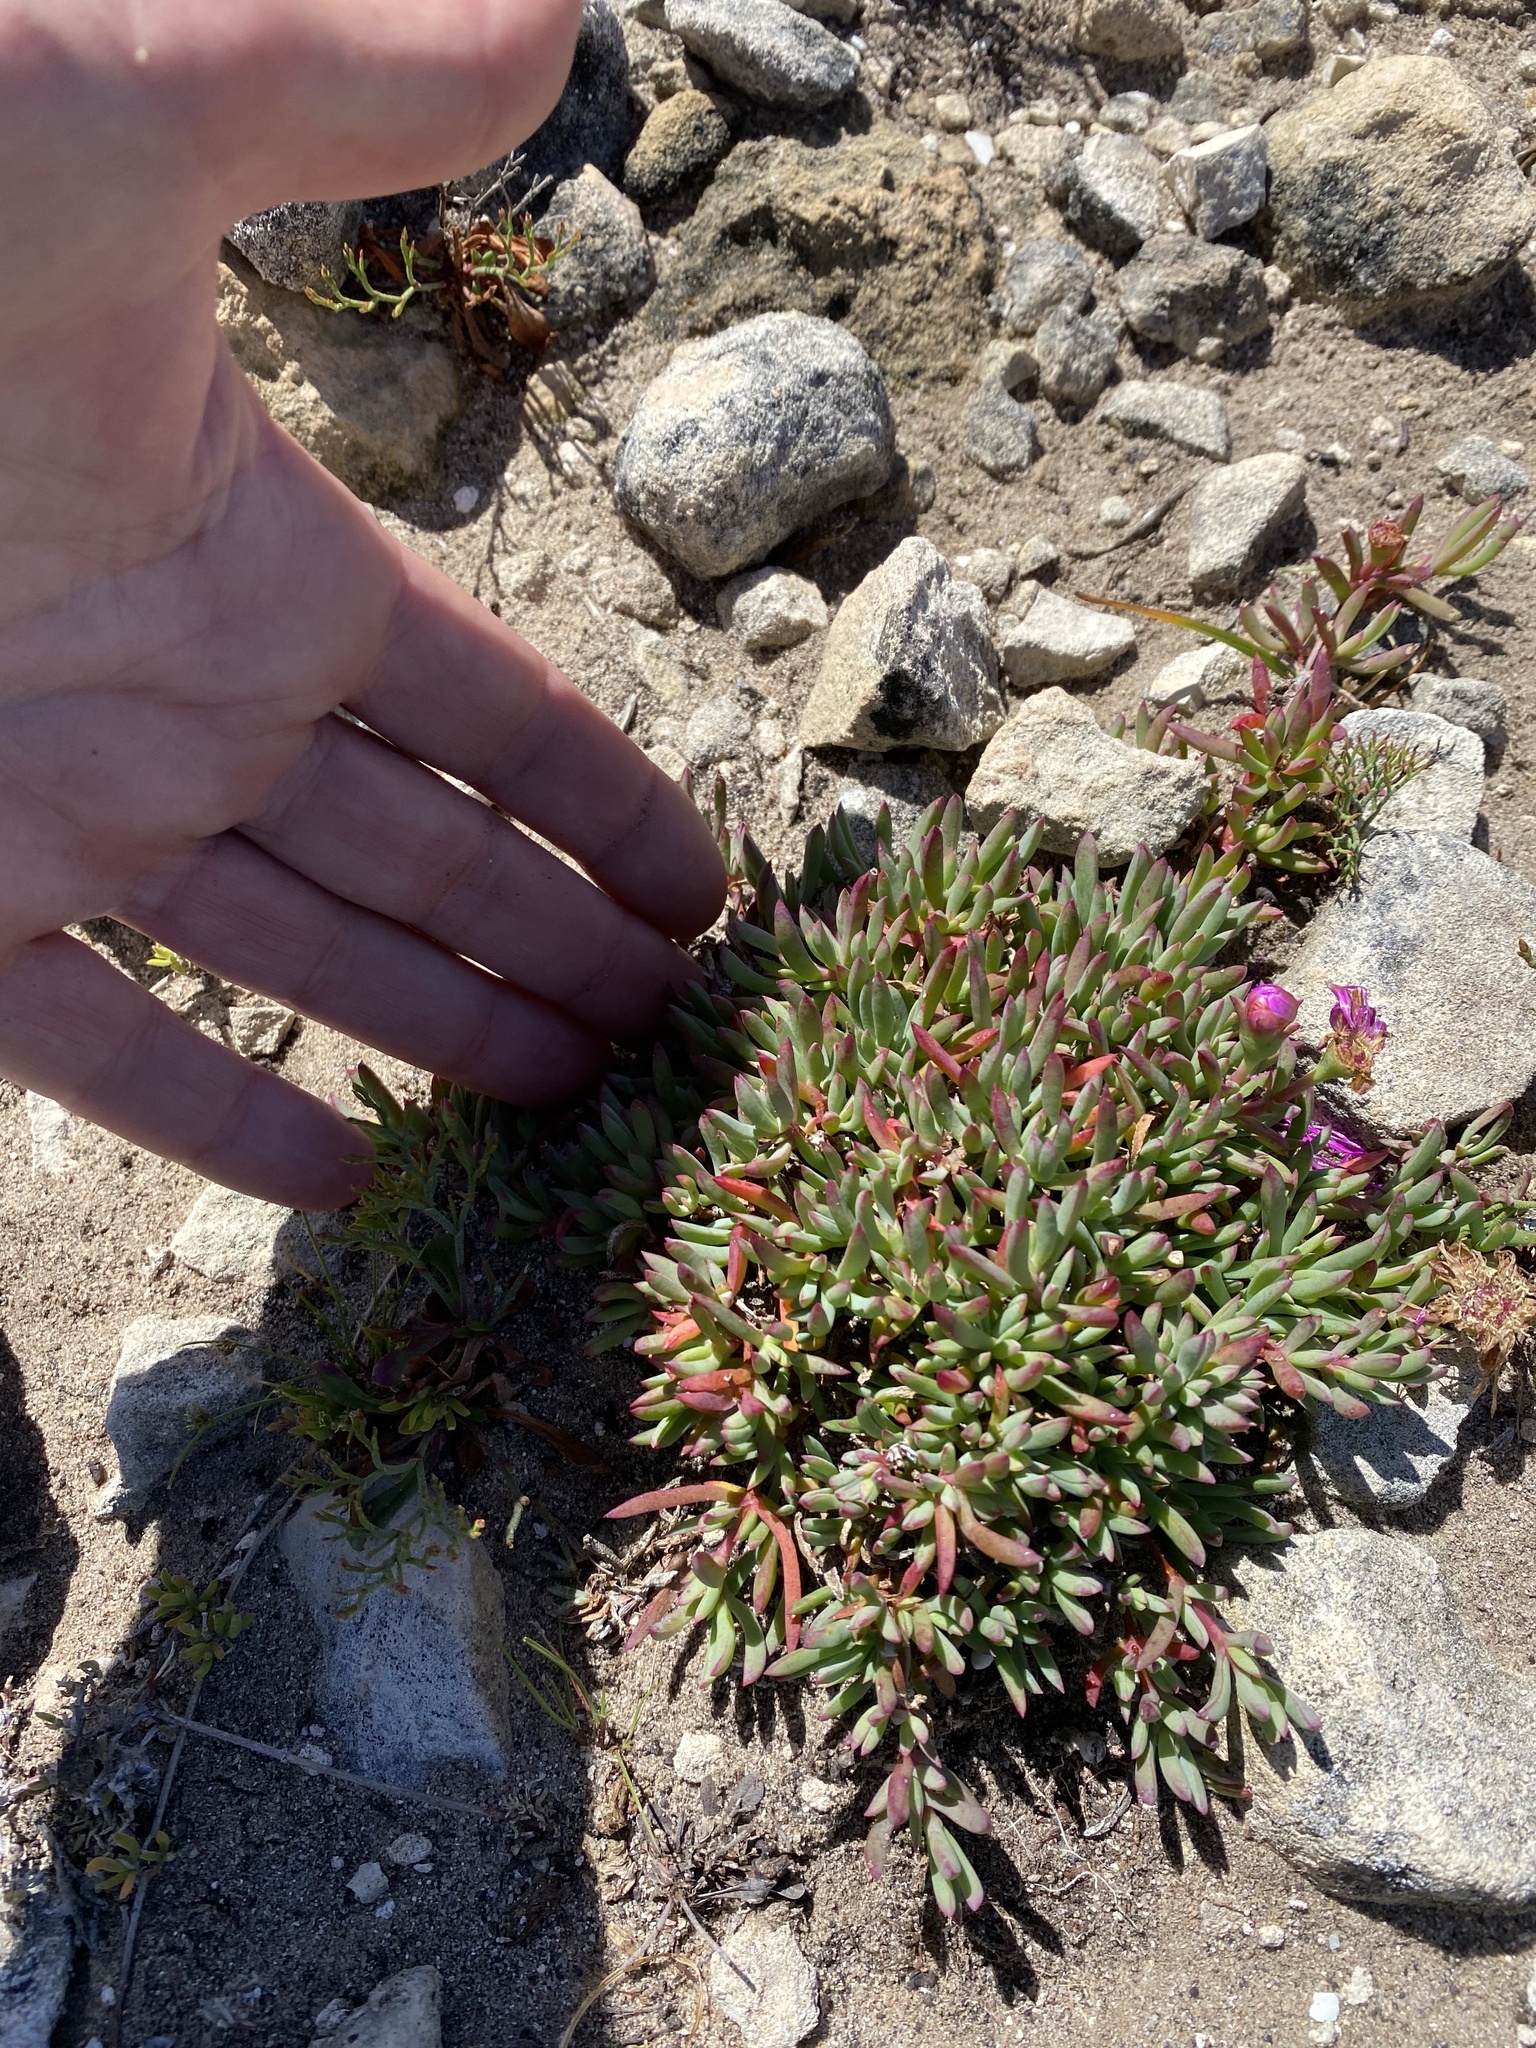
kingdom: Plantae
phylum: Tracheophyta
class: Magnoliopsida
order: Caryophyllales
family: Aizoaceae
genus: Lampranthus
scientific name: Lampranthus ceriseus
